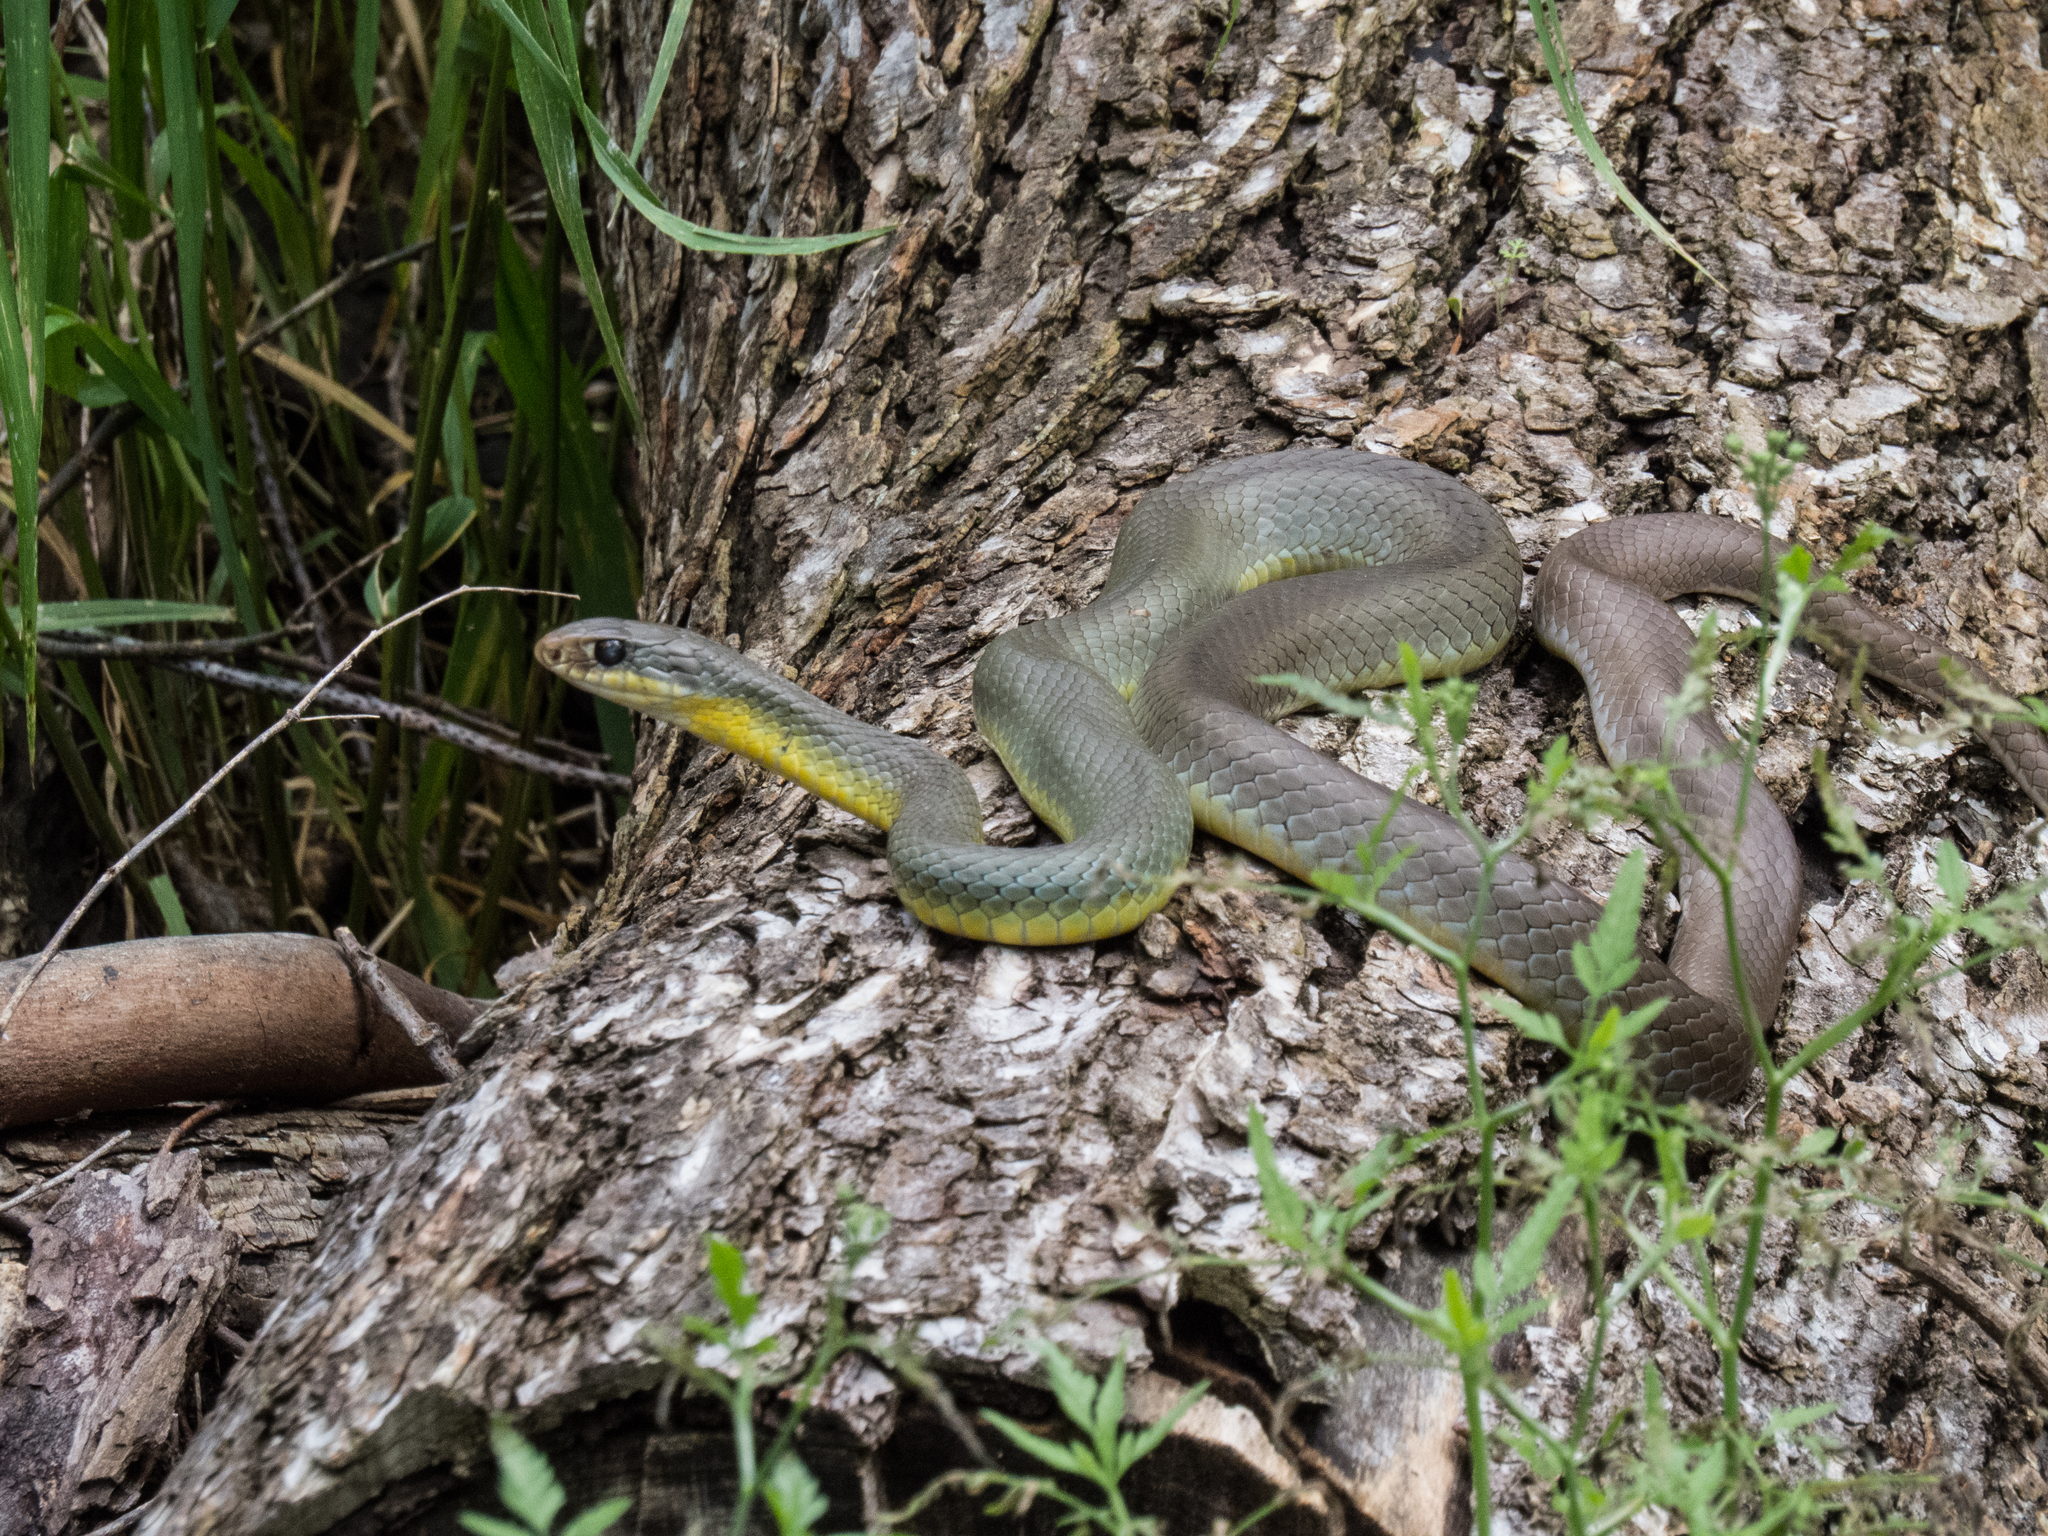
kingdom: Animalia
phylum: Chordata
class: Squamata
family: Colubridae
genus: Coluber
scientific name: Coluber constrictor
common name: Eastern racer
